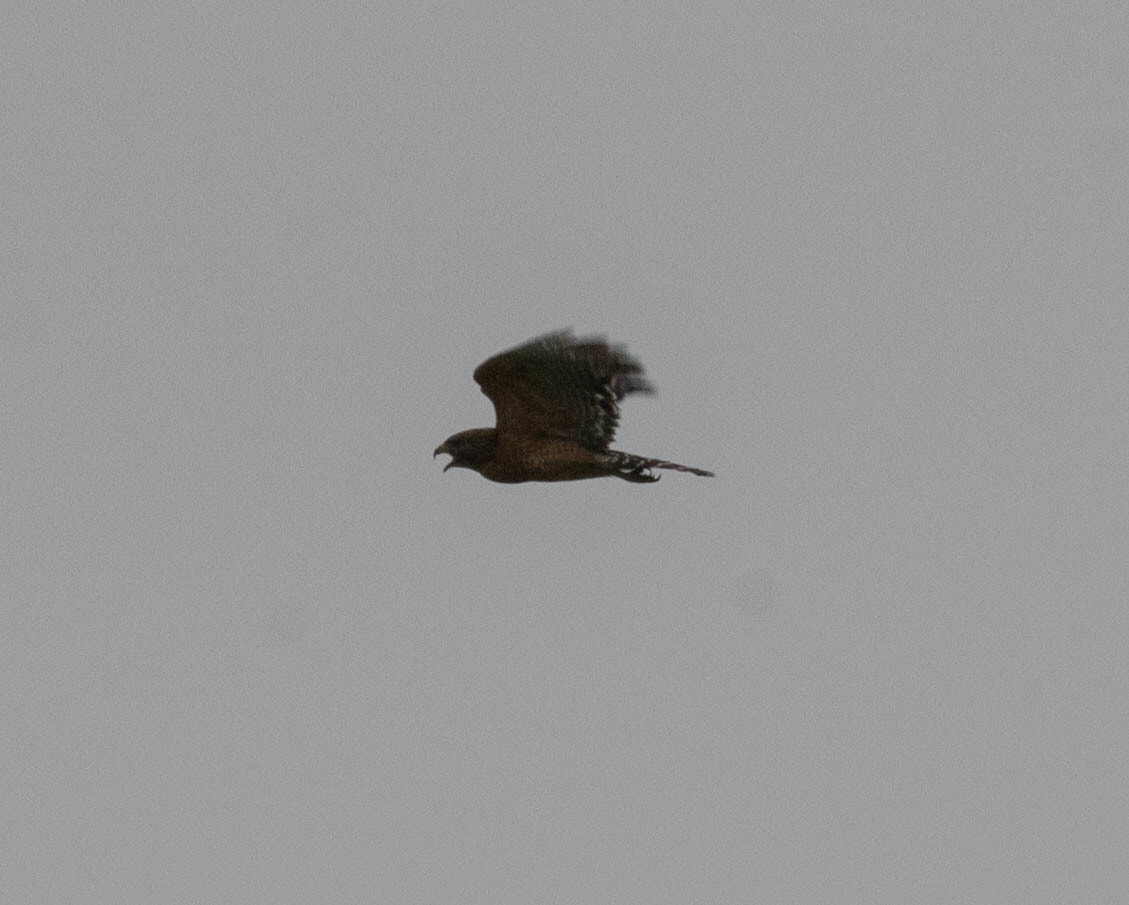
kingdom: Animalia
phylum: Chordata
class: Aves
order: Accipitriformes
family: Accipitridae
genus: Buteo
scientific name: Buteo lineatus
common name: Red-shouldered hawk
